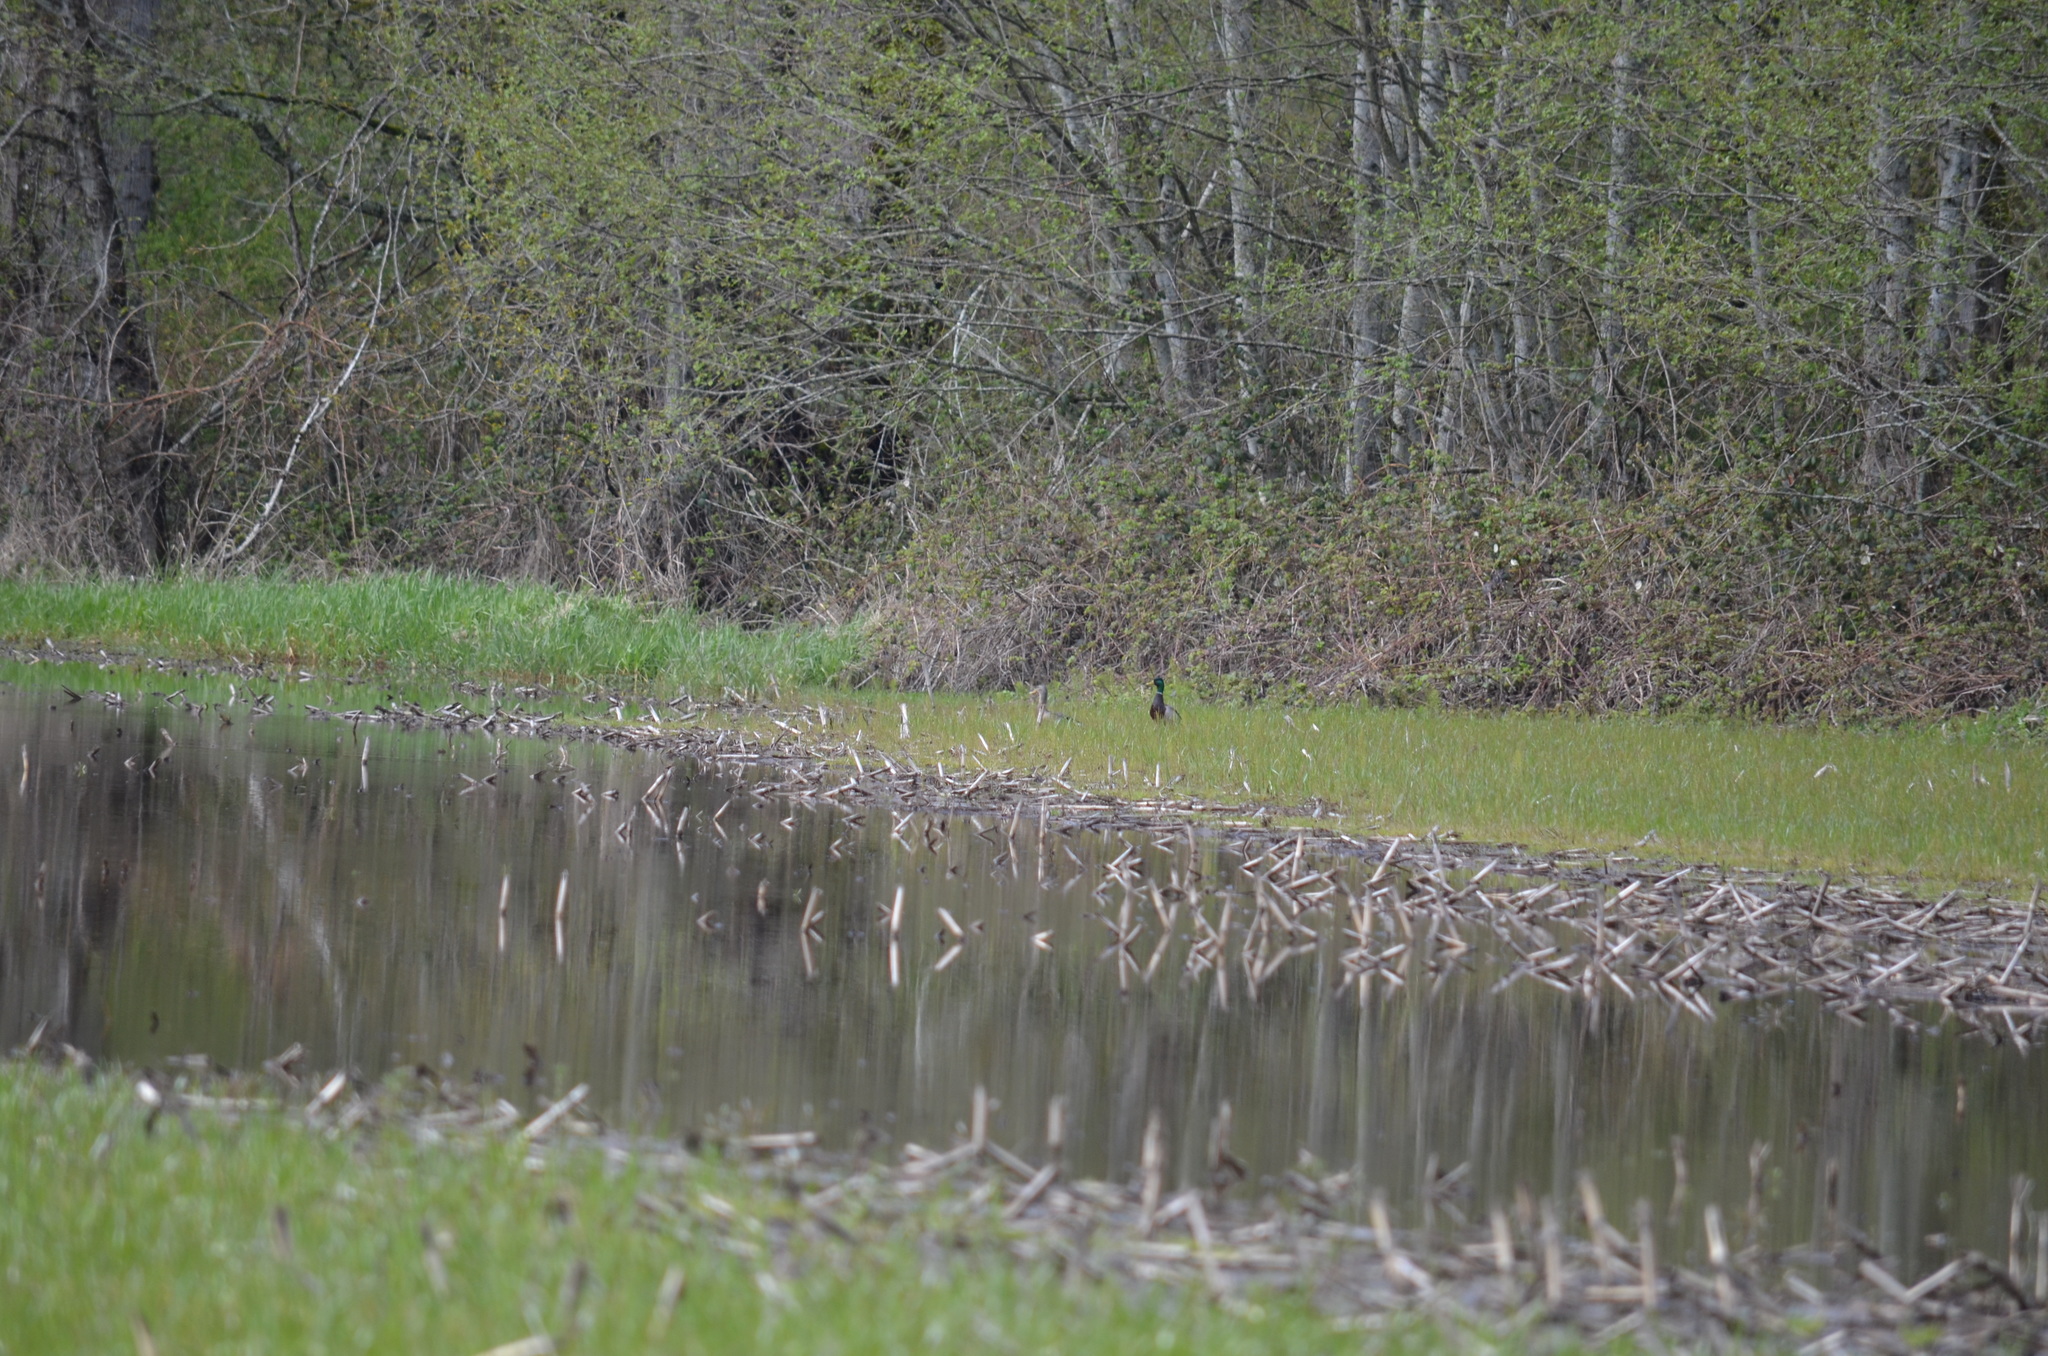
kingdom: Animalia
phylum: Chordata
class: Aves
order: Anseriformes
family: Anatidae
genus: Anas
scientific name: Anas platyrhynchos
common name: Mallard
